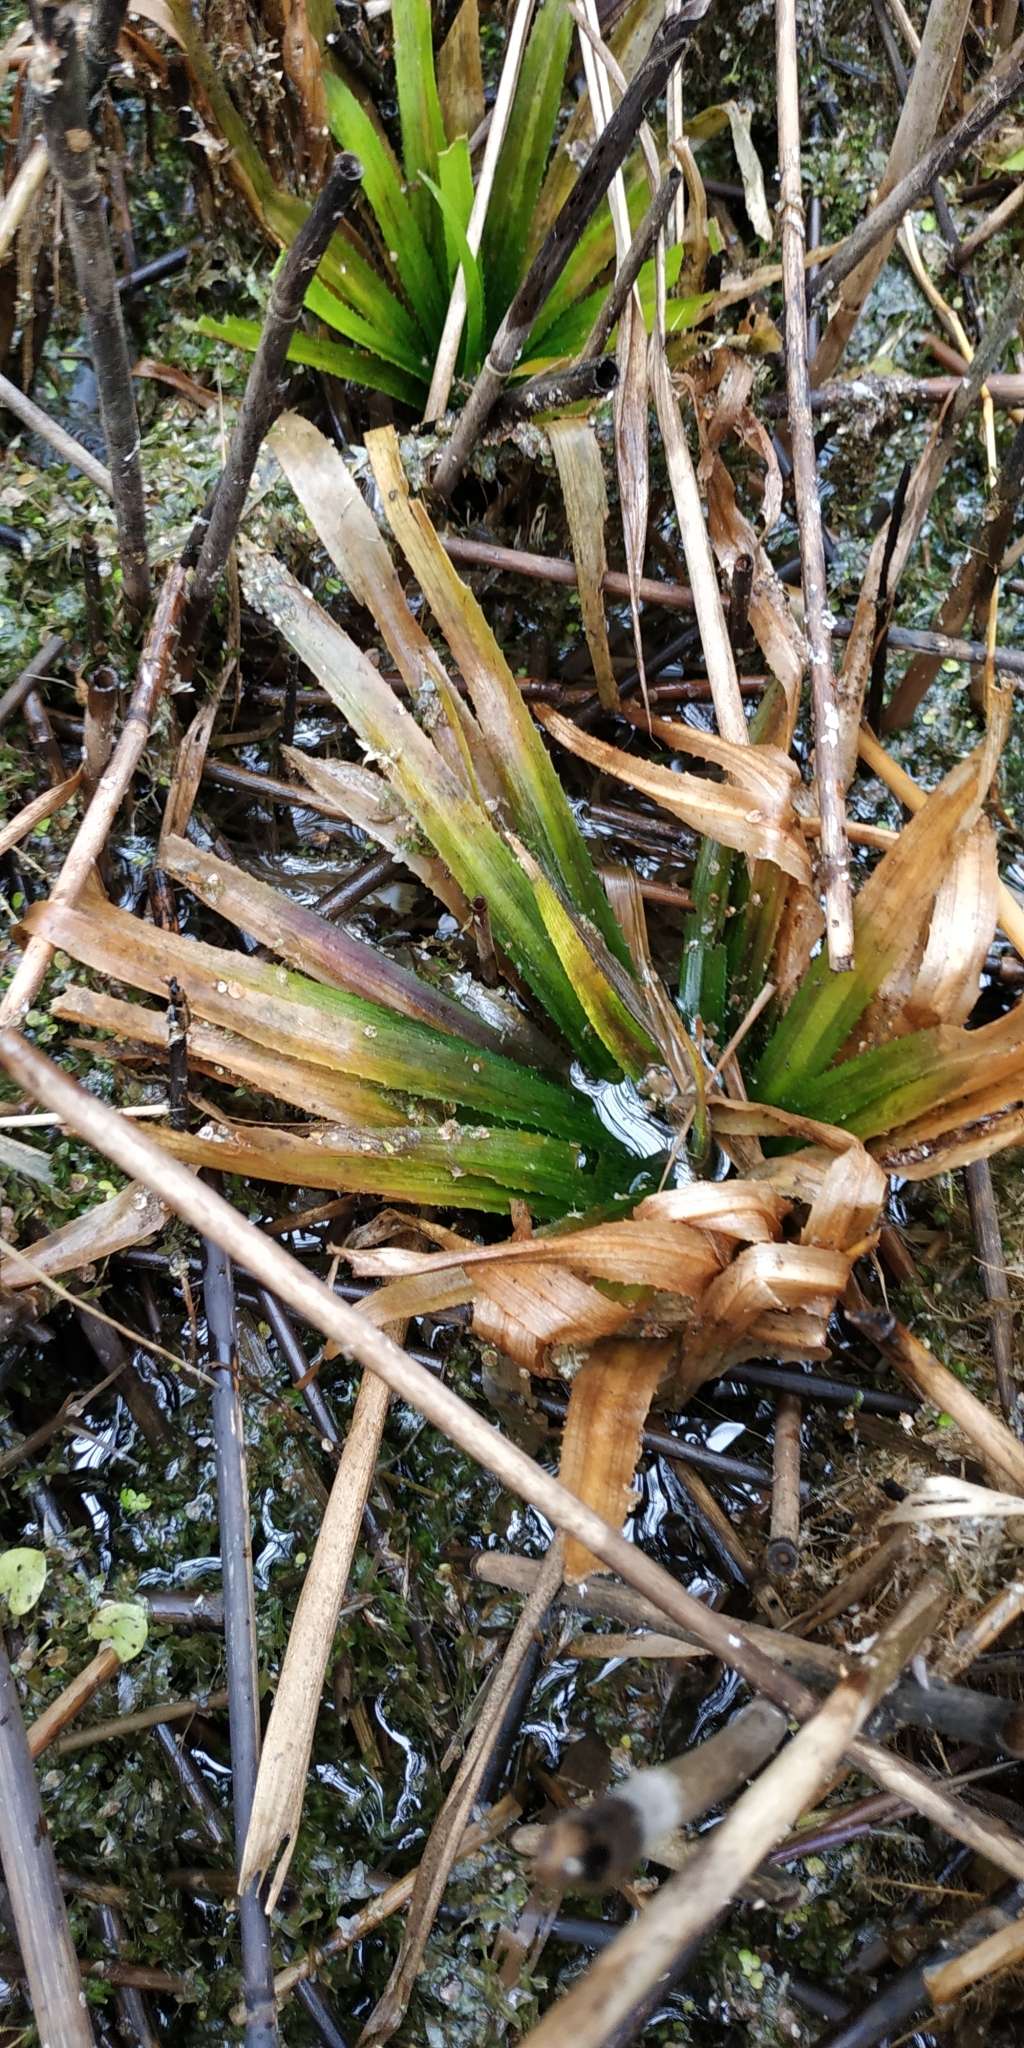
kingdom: Plantae
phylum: Tracheophyta
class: Liliopsida
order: Alismatales
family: Hydrocharitaceae
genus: Stratiotes
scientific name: Stratiotes aloides
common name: Water-soldier
